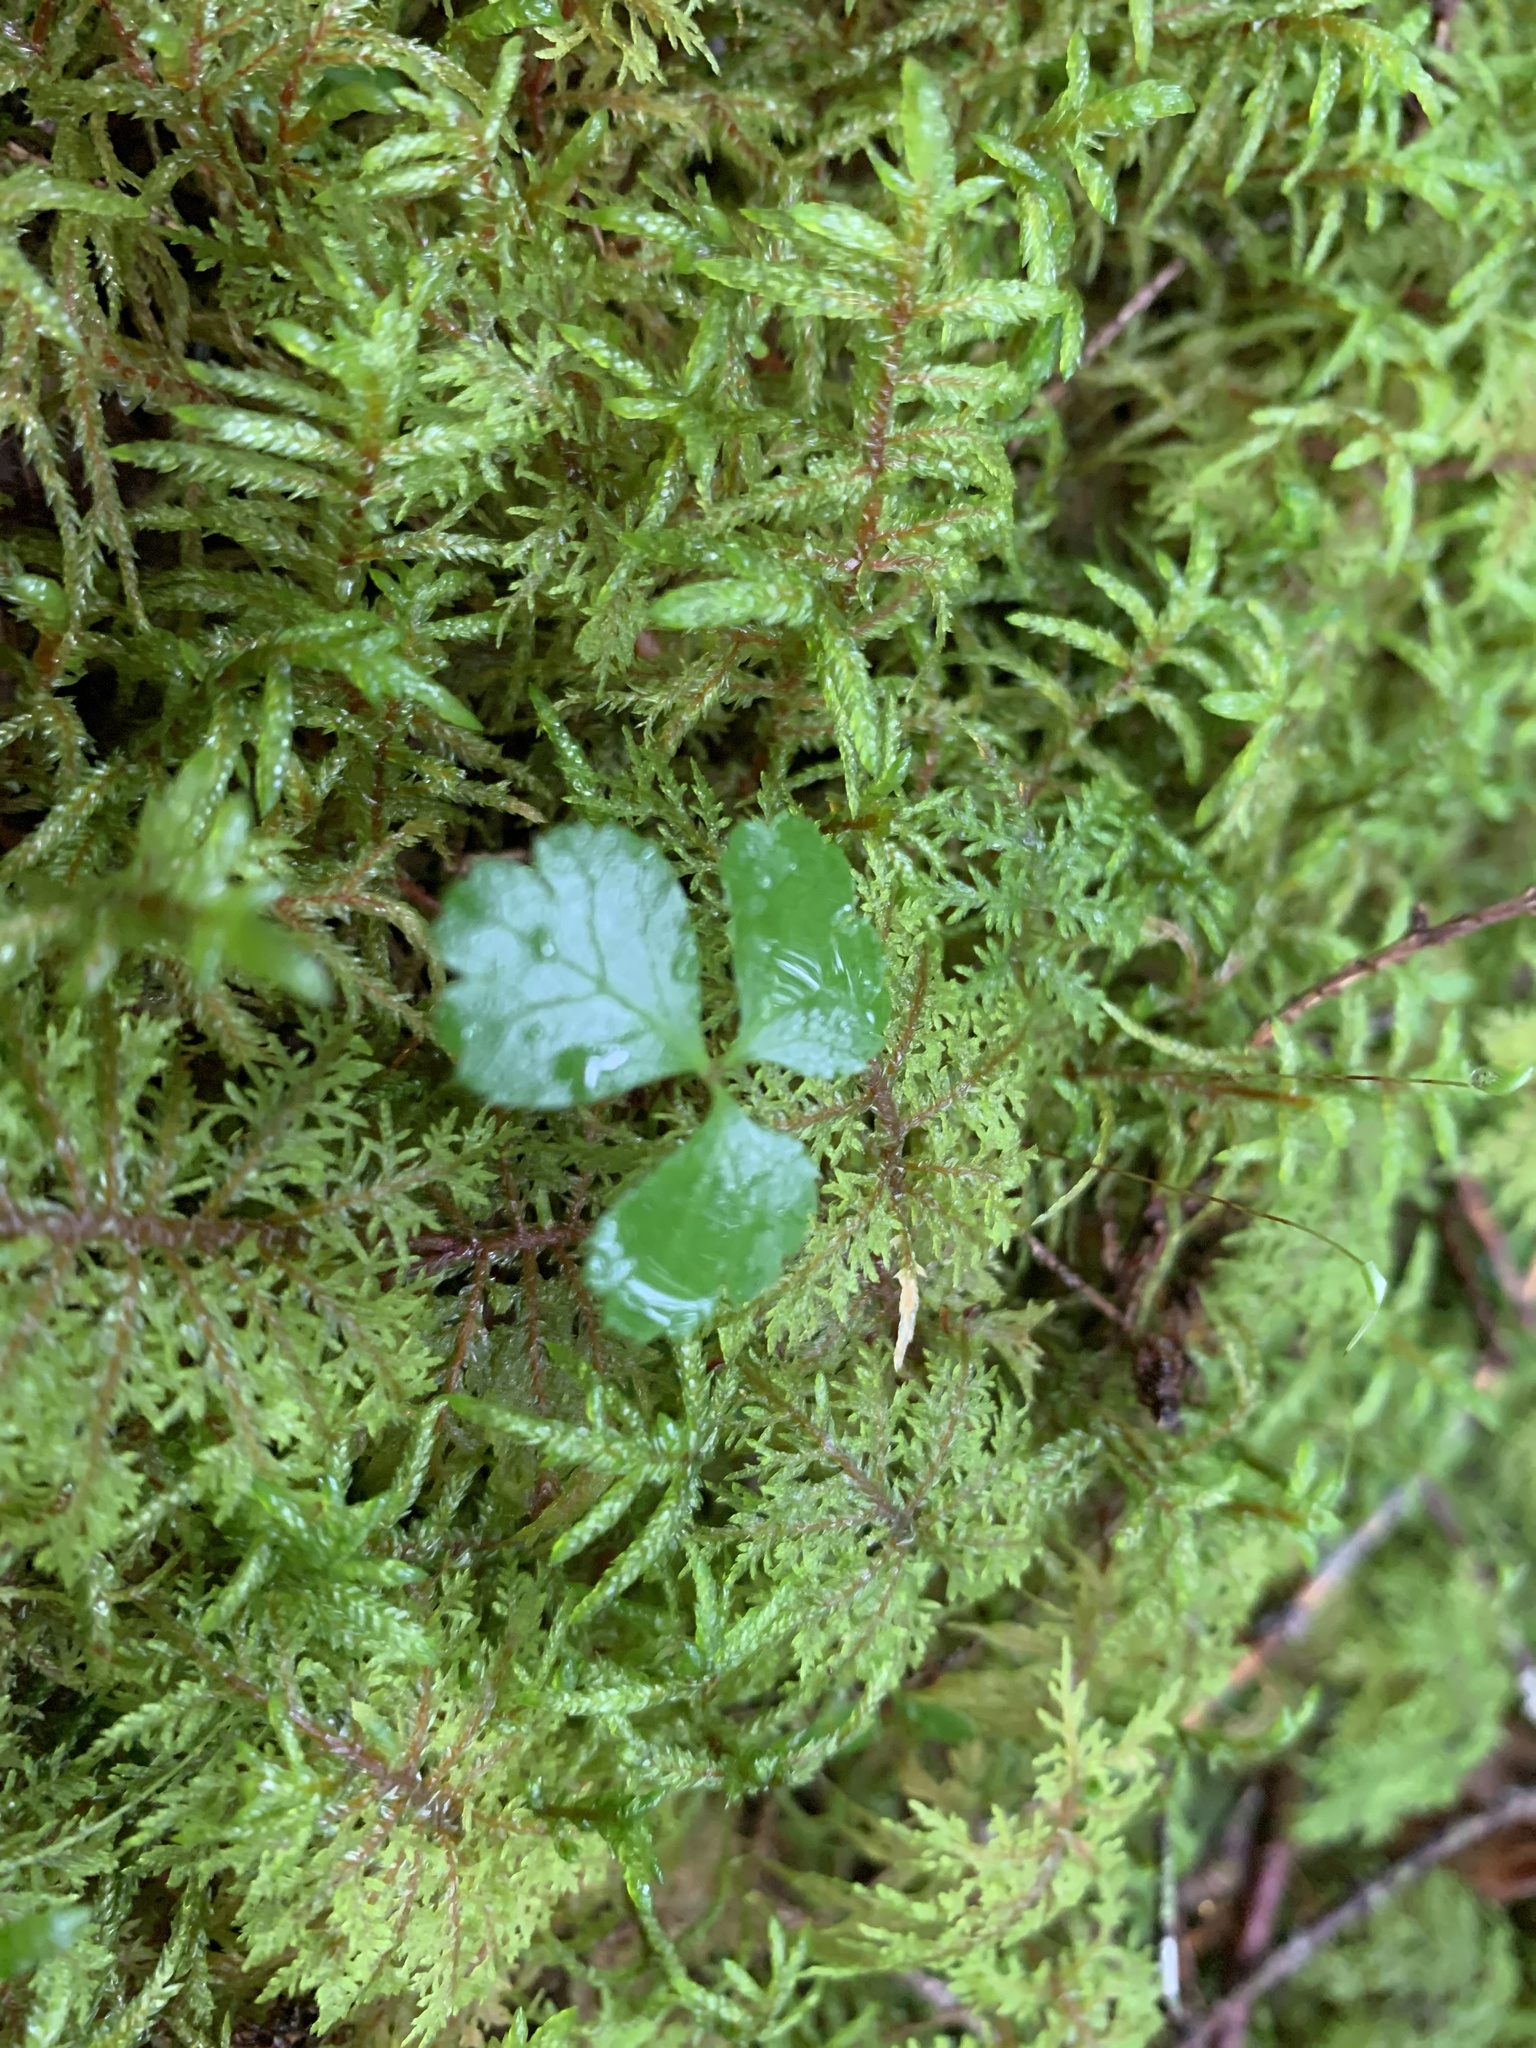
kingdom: Plantae
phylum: Tracheophyta
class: Magnoliopsida
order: Ranunculales
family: Ranunculaceae
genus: Coptis
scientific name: Coptis trifolia
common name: Canker-root
